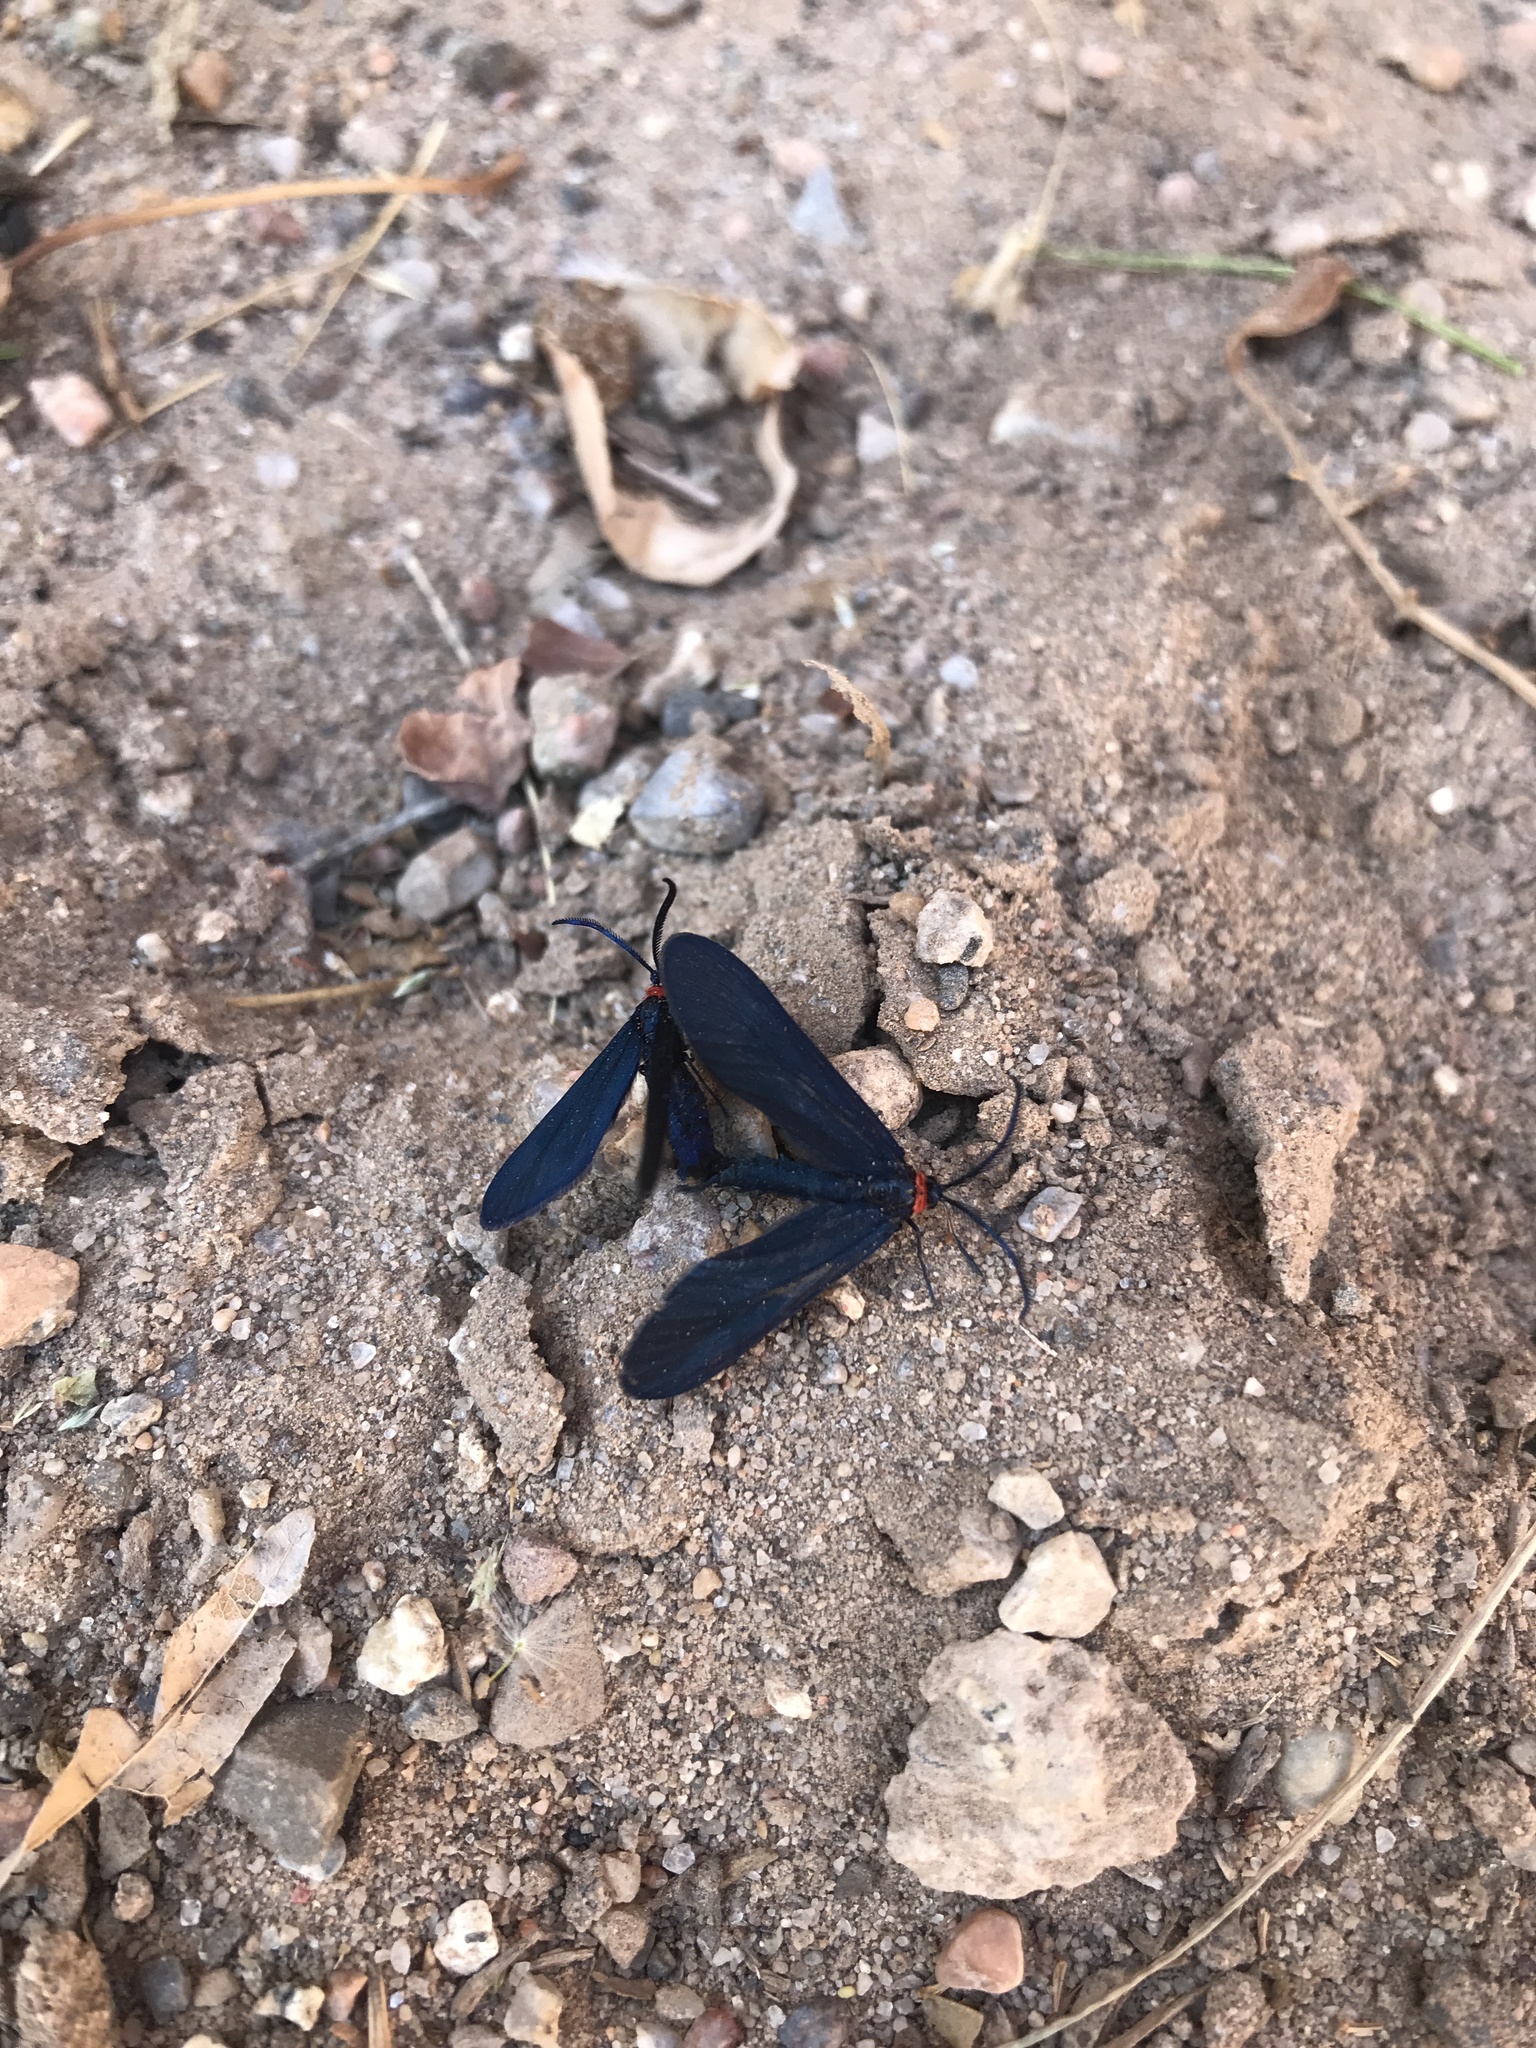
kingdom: Animalia
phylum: Arthropoda
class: Insecta
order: Lepidoptera
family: Zygaenidae
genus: Harrisina
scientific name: Harrisina metallica
